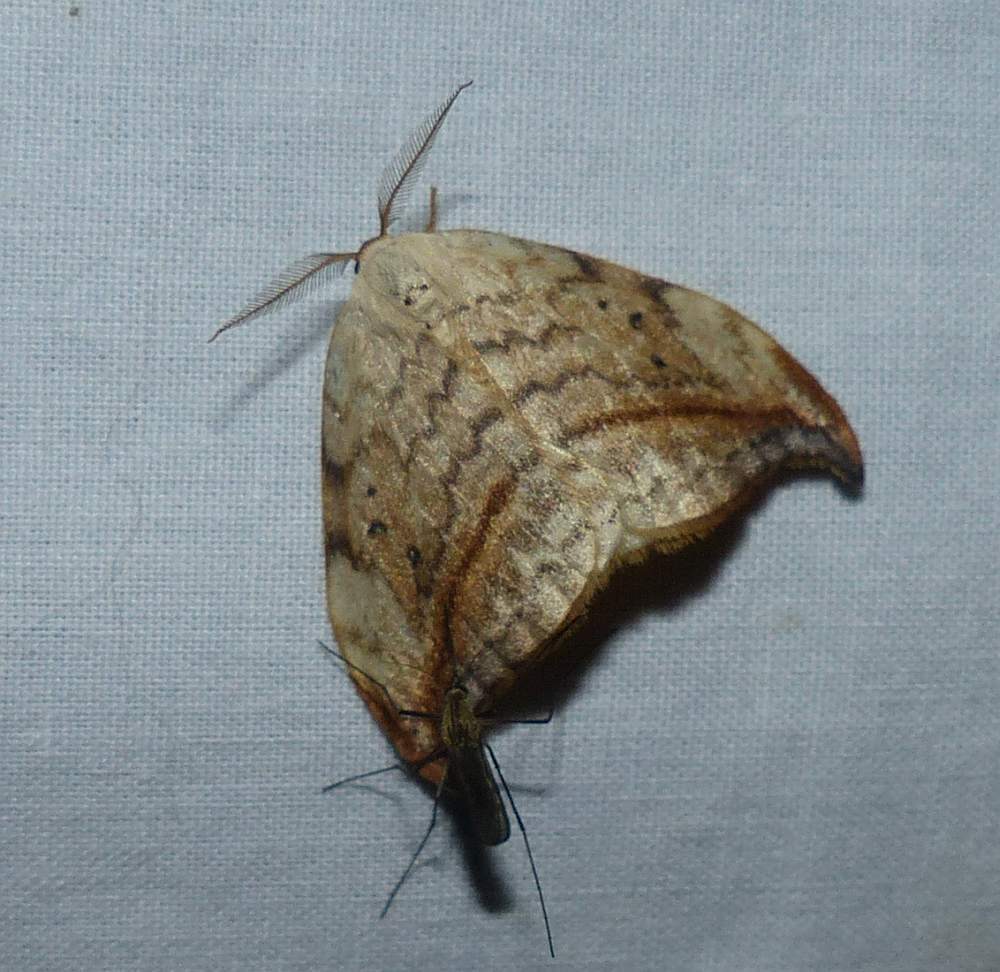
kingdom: Animalia
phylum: Arthropoda
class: Insecta
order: Lepidoptera
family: Drepanidae
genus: Drepana
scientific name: Drepana arcuata
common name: Arched hooktip moth
